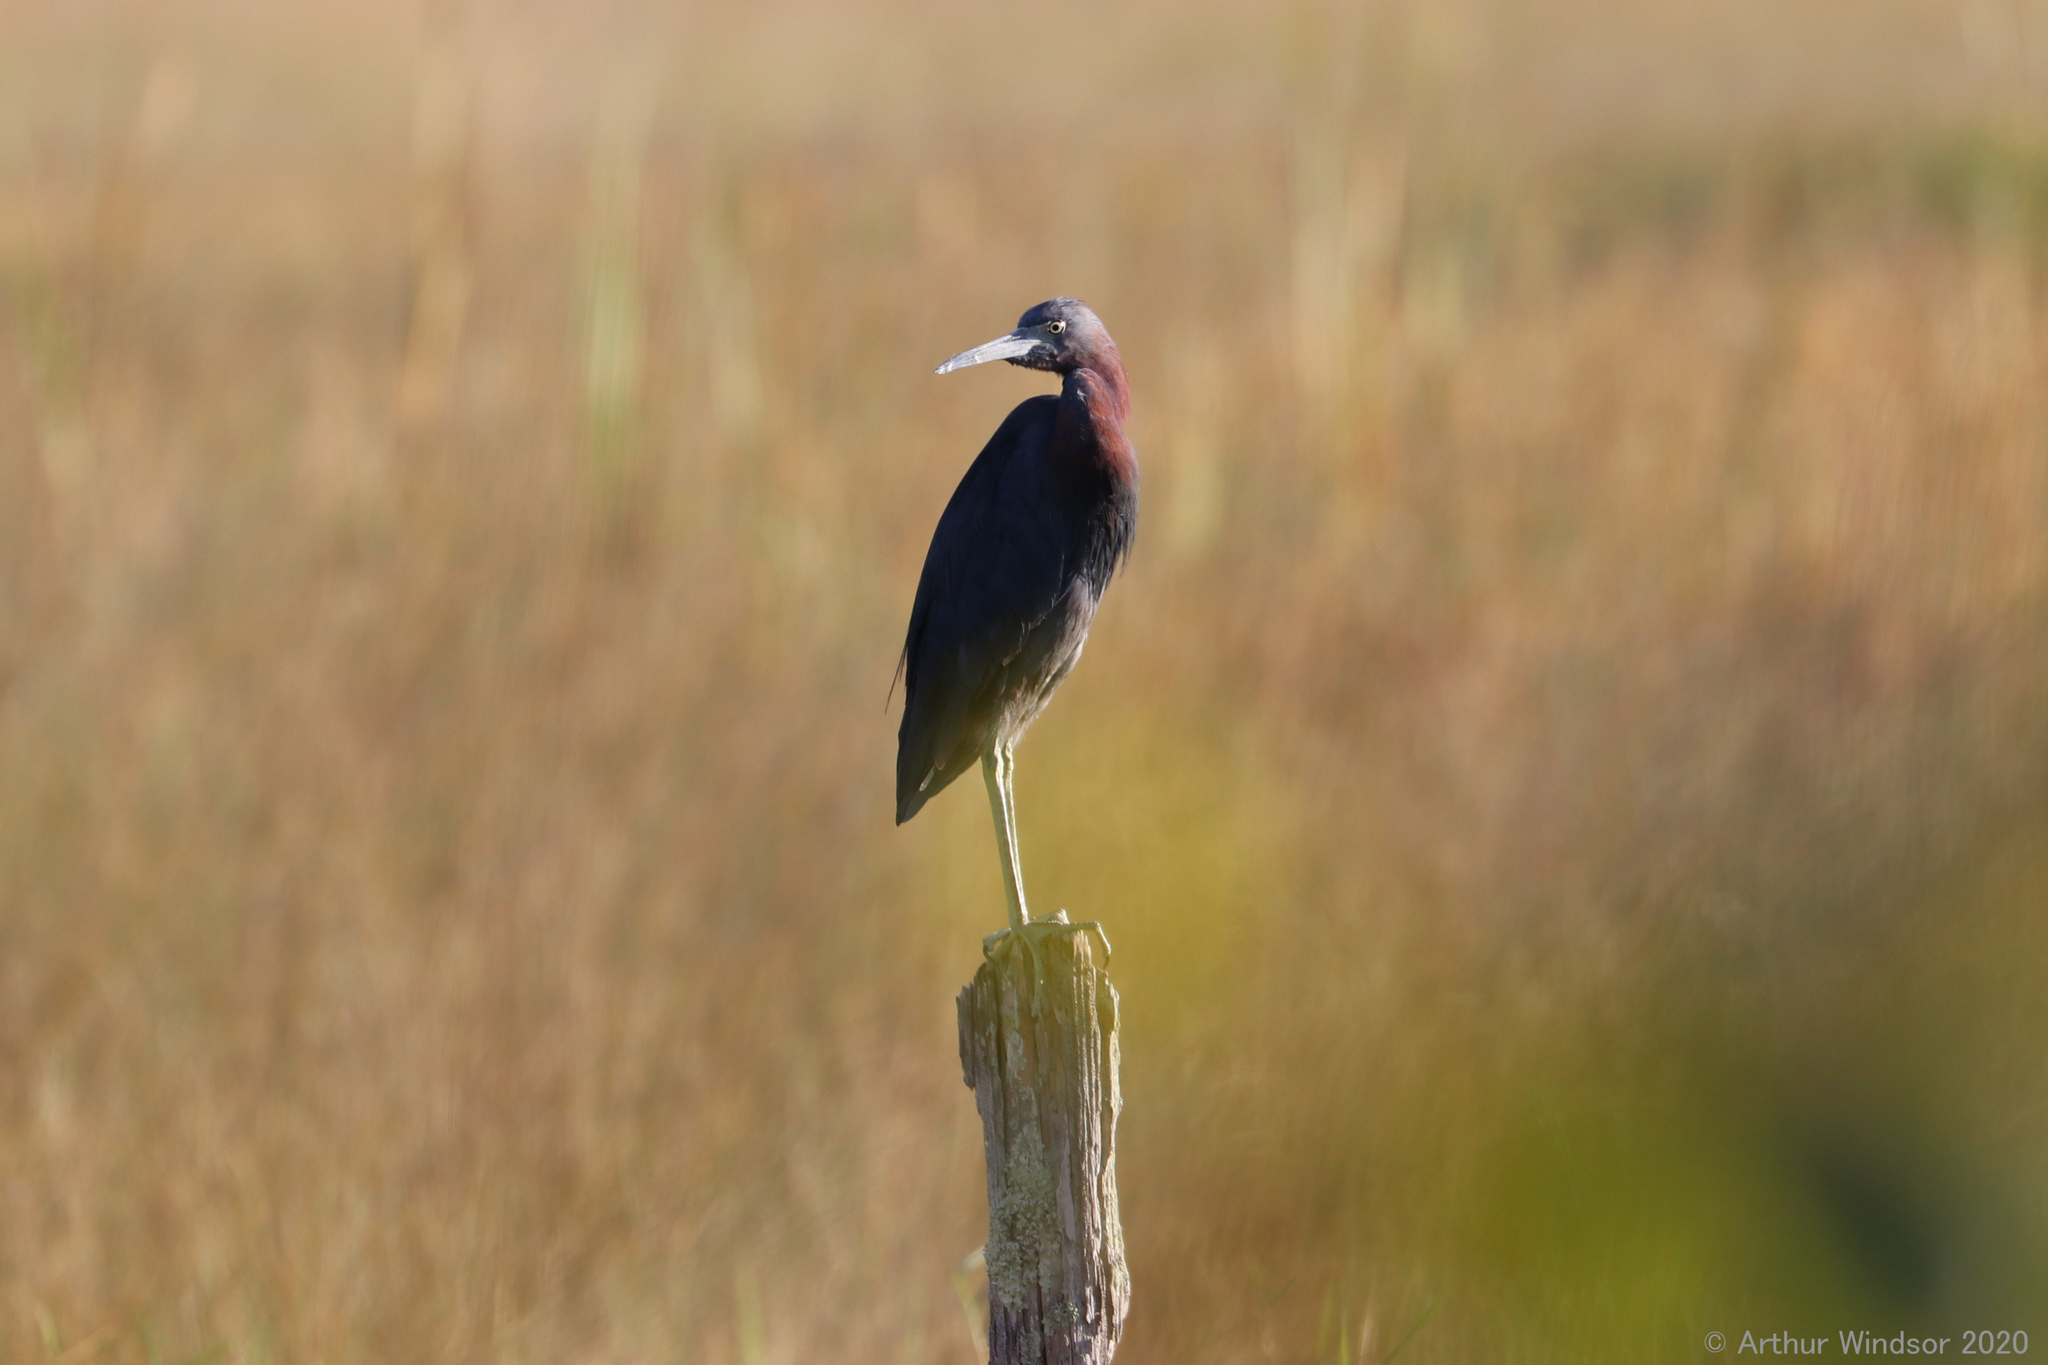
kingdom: Animalia
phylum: Chordata
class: Aves
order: Pelecaniformes
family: Ardeidae
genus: Egretta
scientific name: Egretta caerulea
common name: Little blue heron
